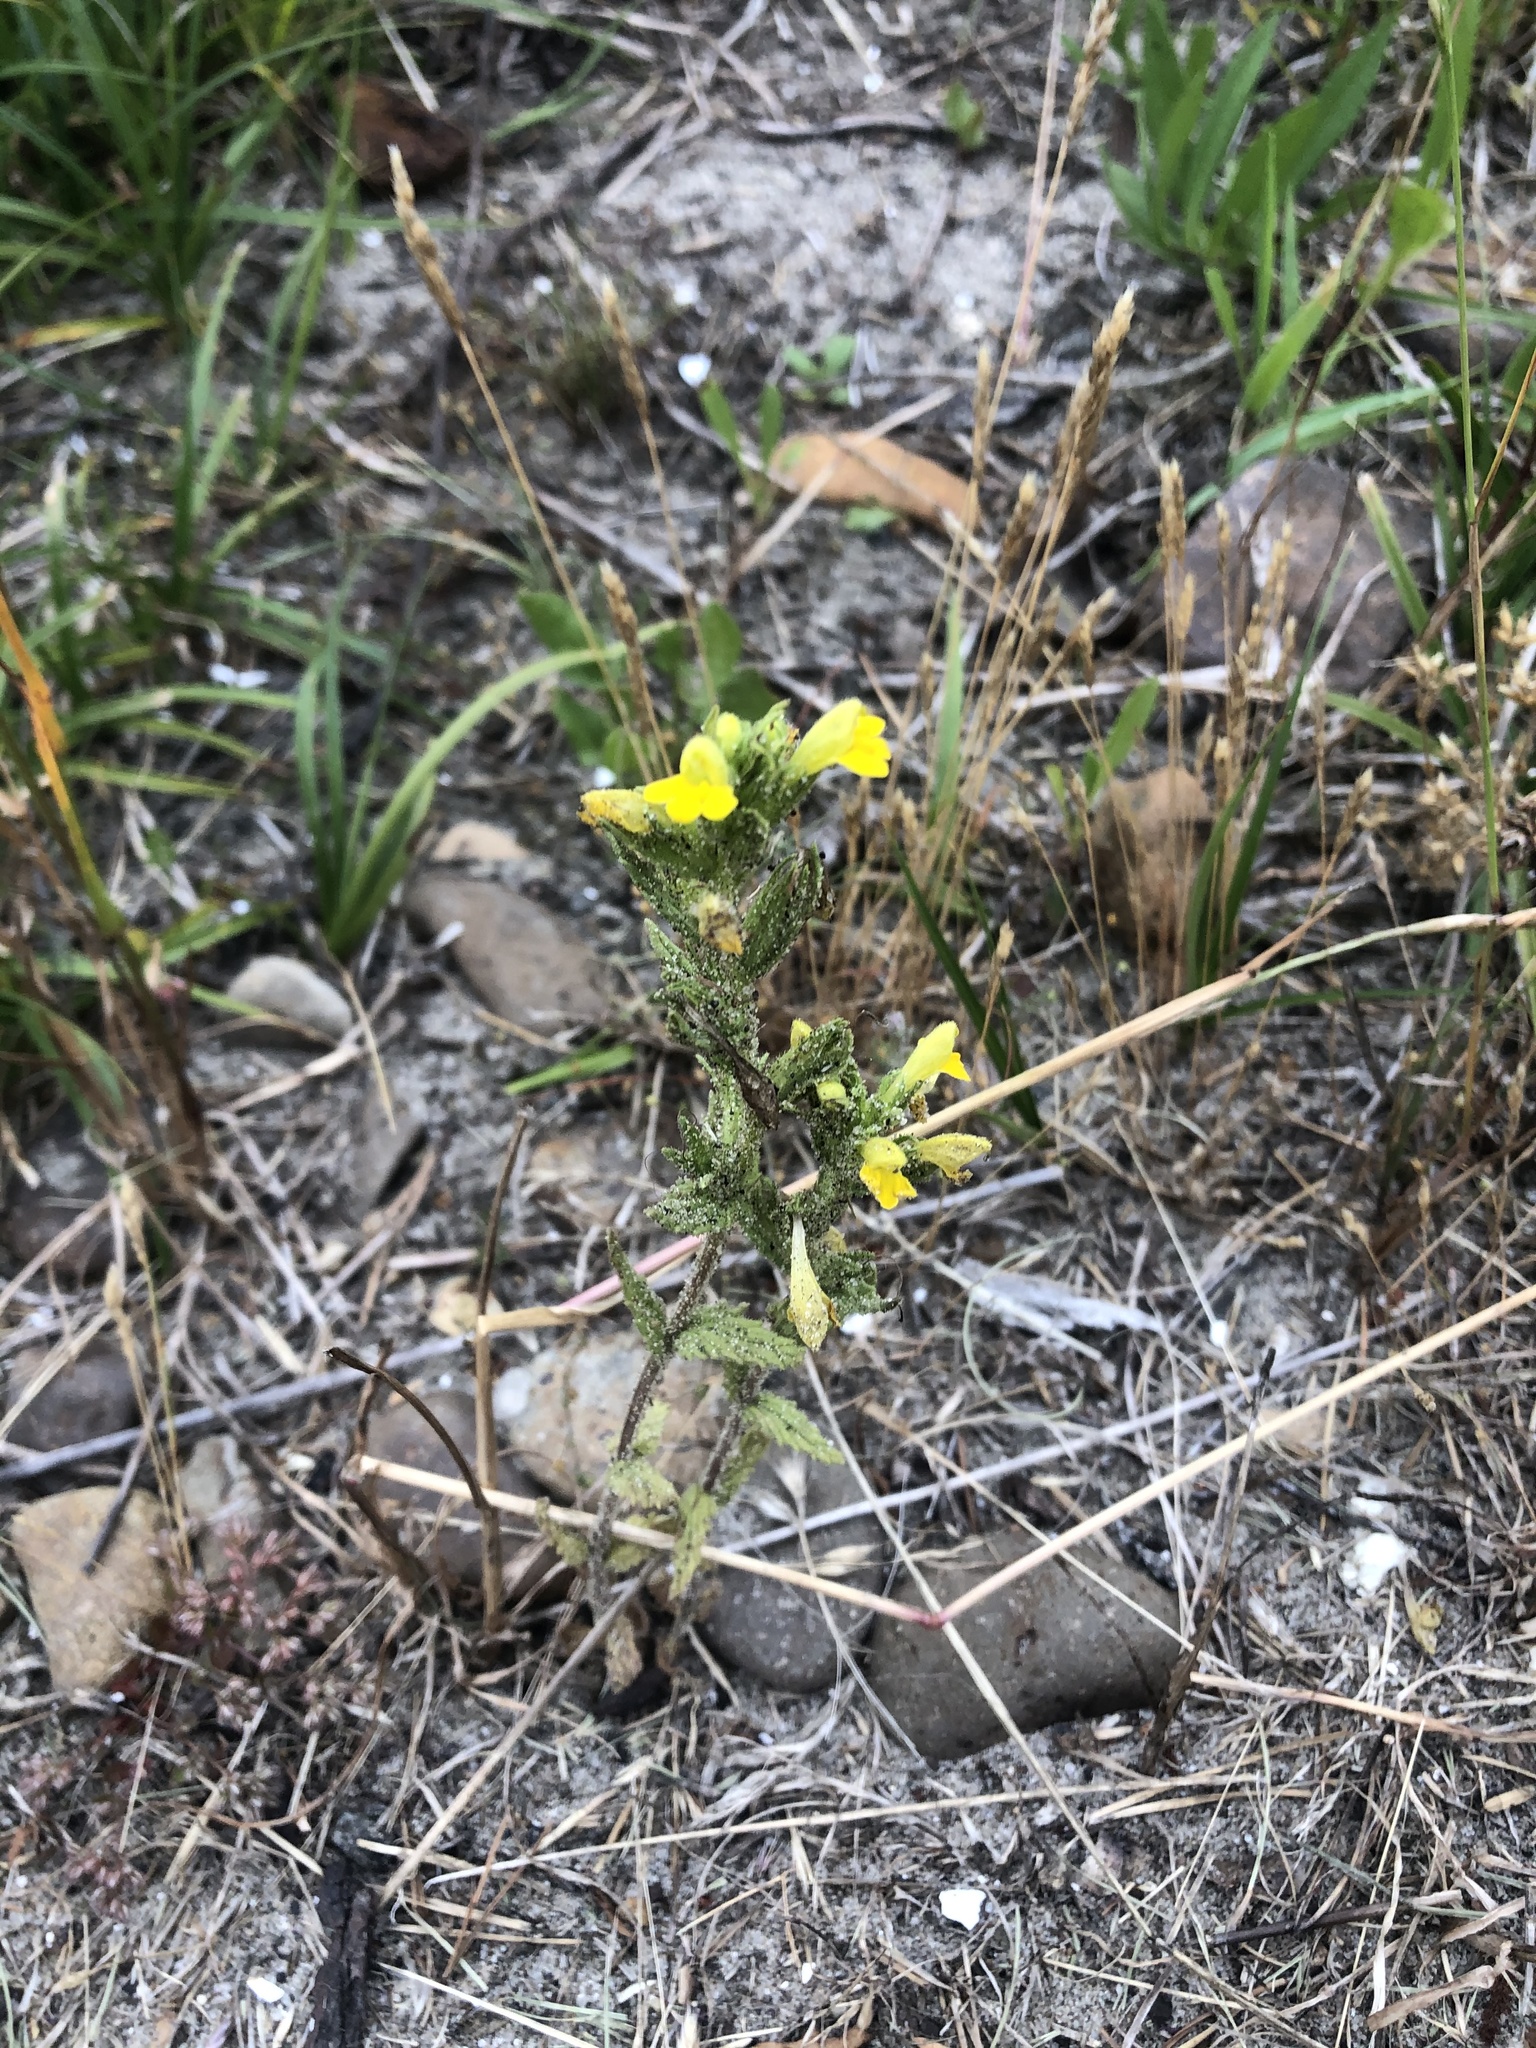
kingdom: Plantae
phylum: Tracheophyta
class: Magnoliopsida
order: Lamiales
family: Orobanchaceae
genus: Bellardia
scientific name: Bellardia viscosa
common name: Sticky parentucellia
